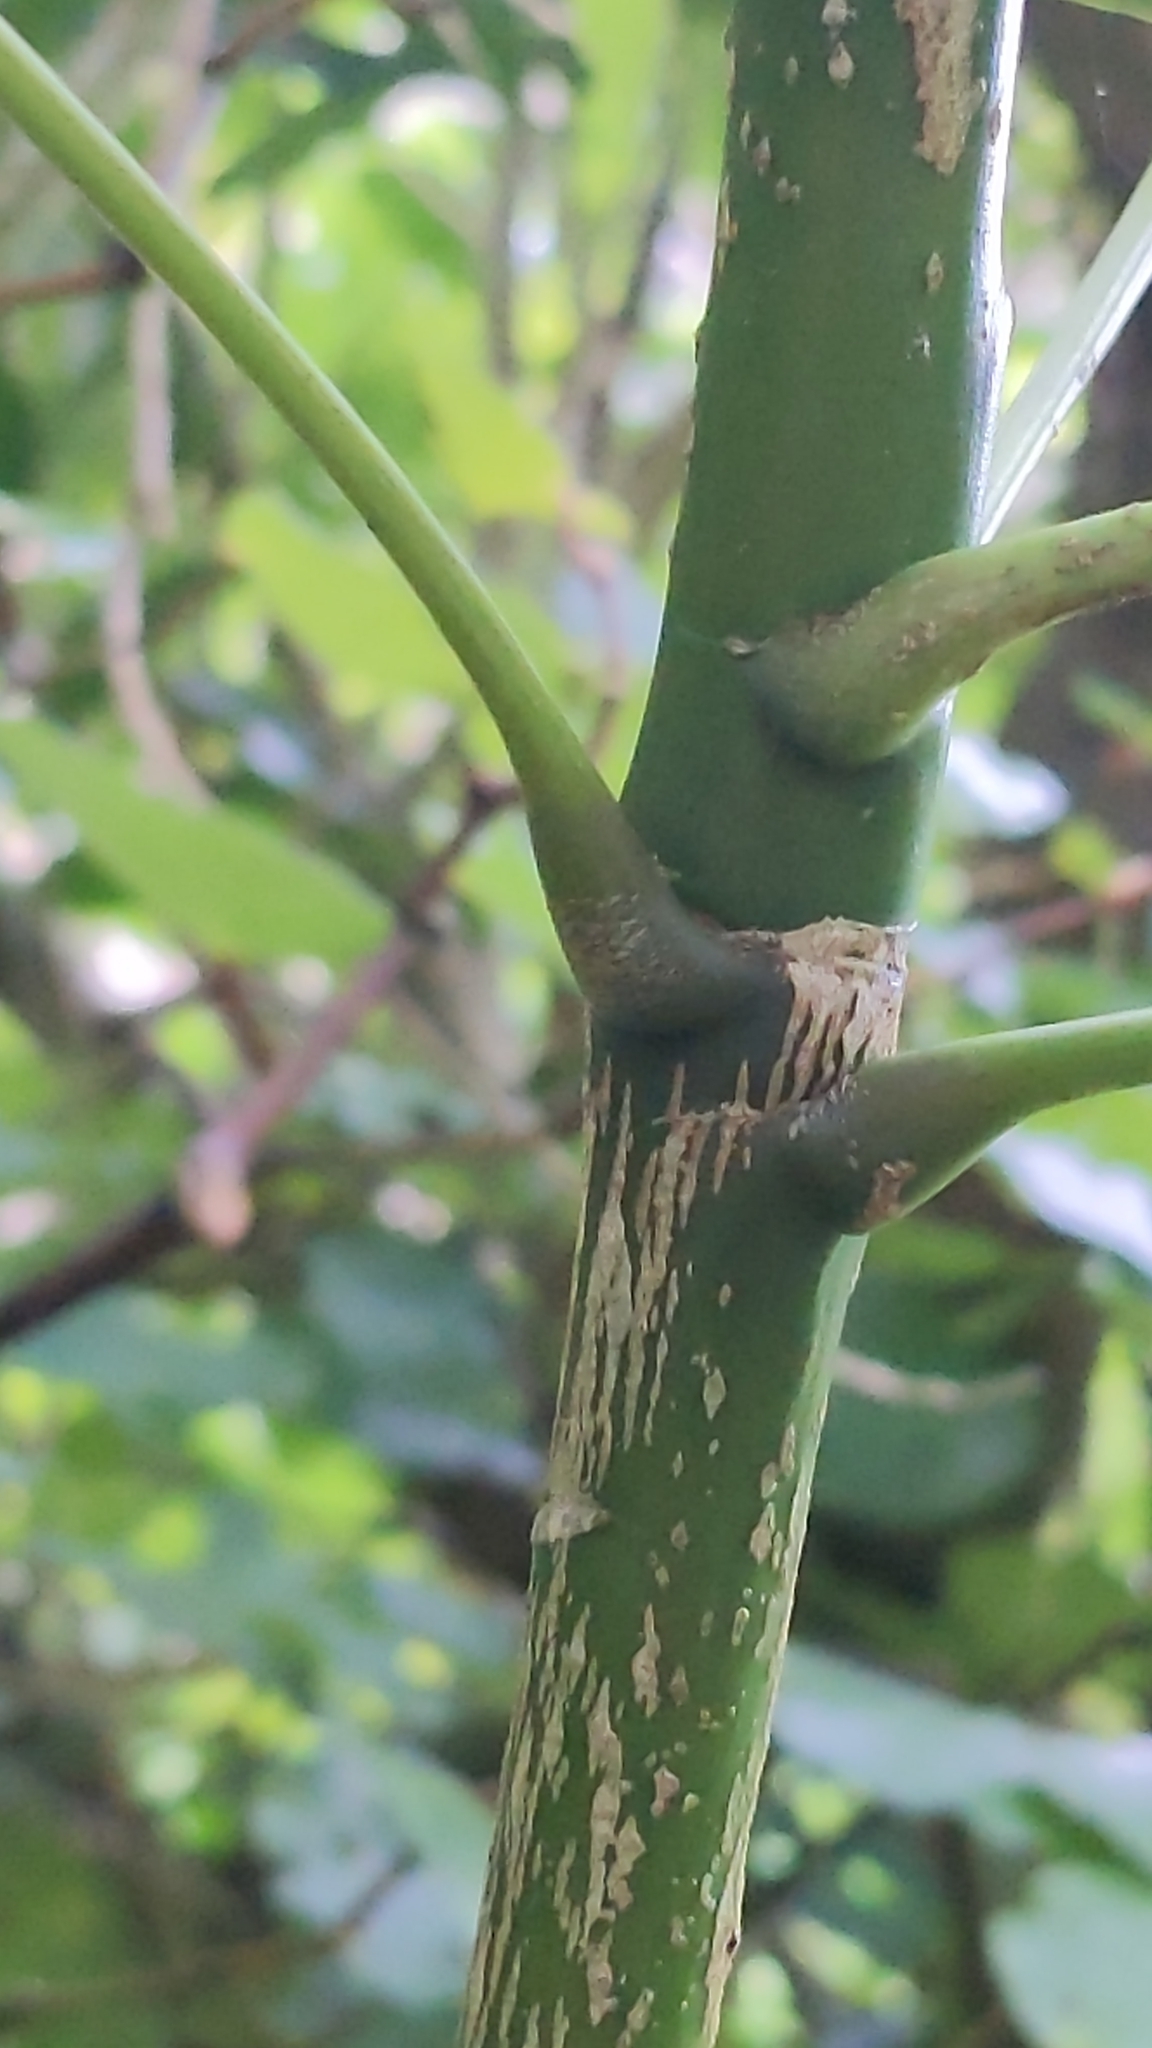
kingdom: Plantae
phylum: Tracheophyta
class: Magnoliopsida
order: Apiales
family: Araliaceae
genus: Pseudopanax
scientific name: Pseudopanax
